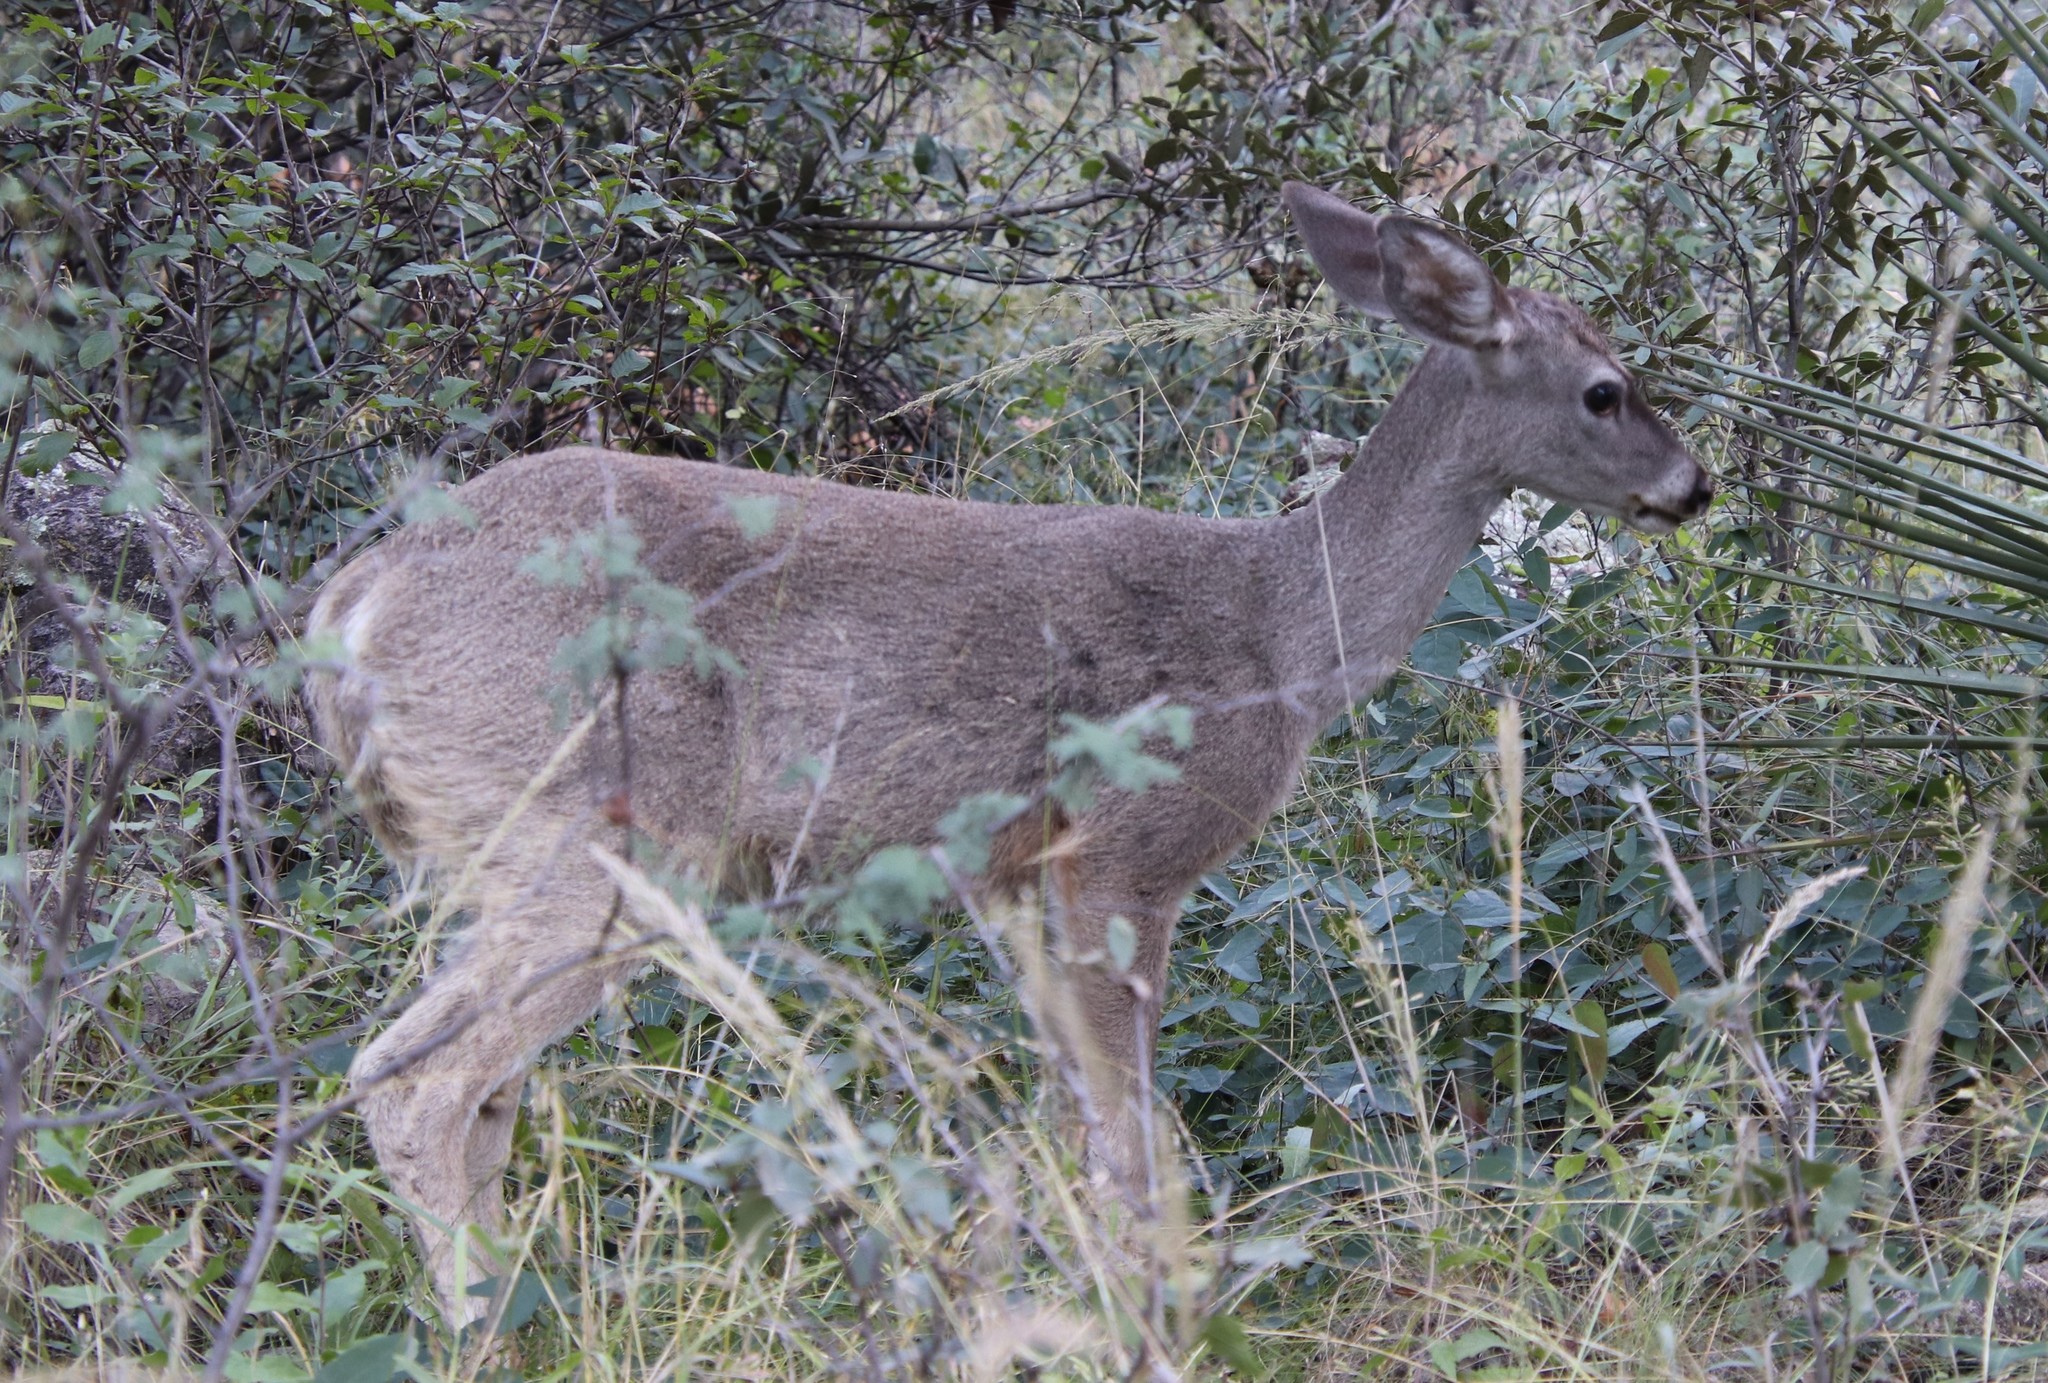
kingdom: Animalia
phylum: Chordata
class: Mammalia
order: Artiodactyla
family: Cervidae
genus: Odocoileus
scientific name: Odocoileus virginianus
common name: White-tailed deer
